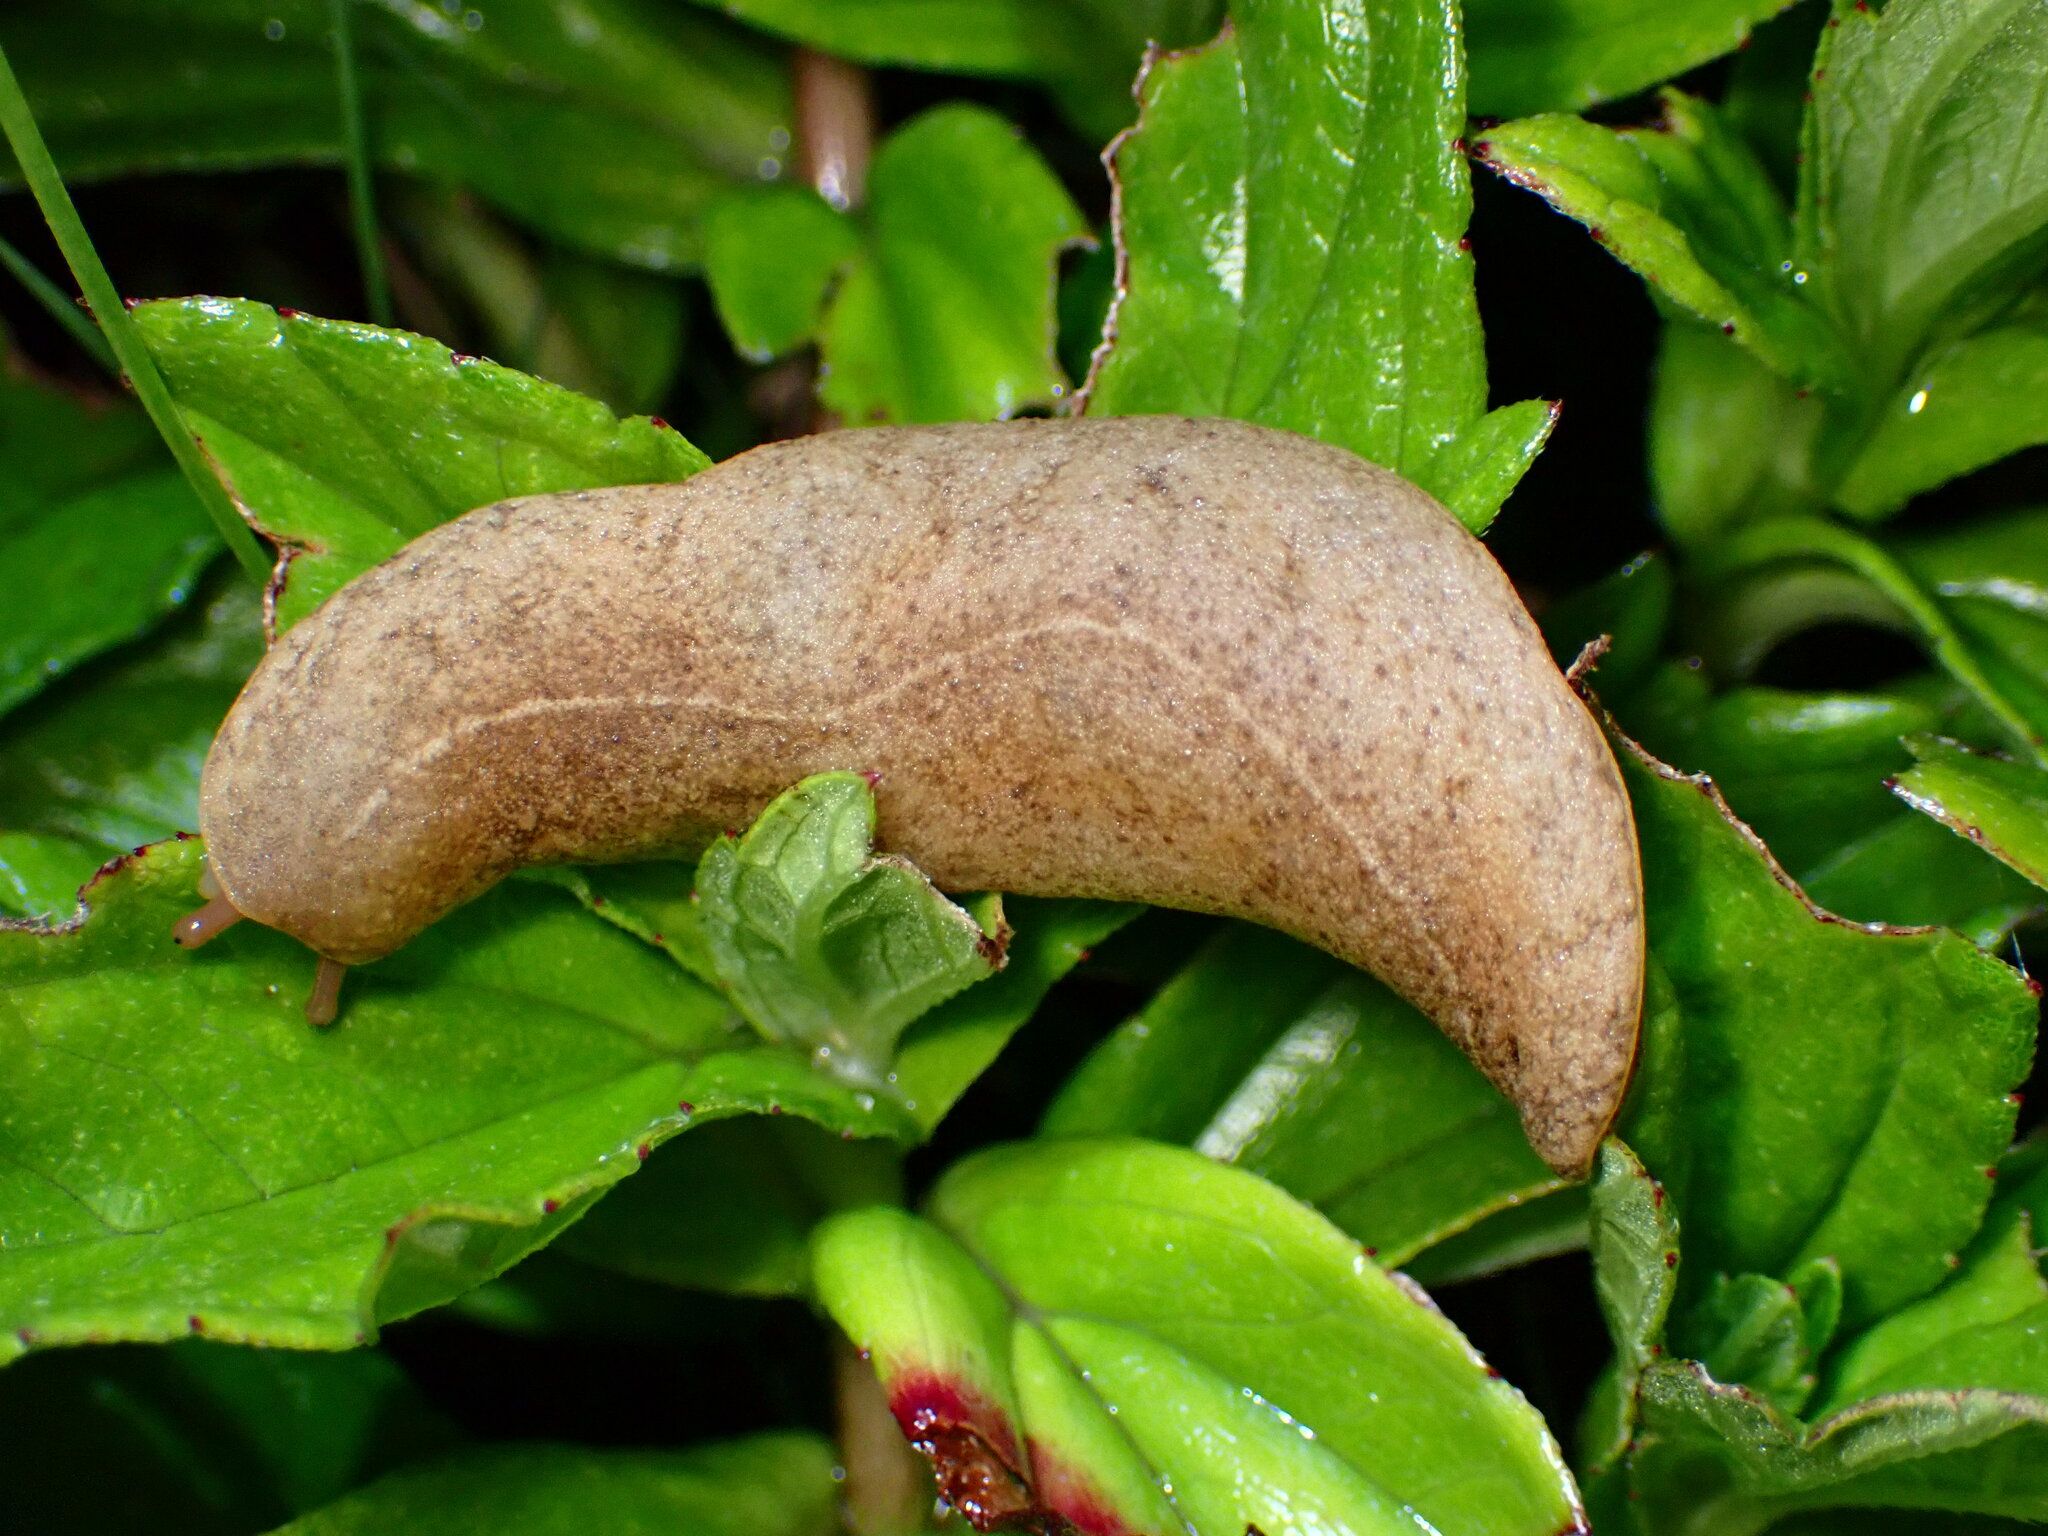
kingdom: Animalia
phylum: Mollusca
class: Gastropoda
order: Systellommatophora
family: Veronicellidae
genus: Veronicella
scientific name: Veronicella cubensis
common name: Two striped slug
